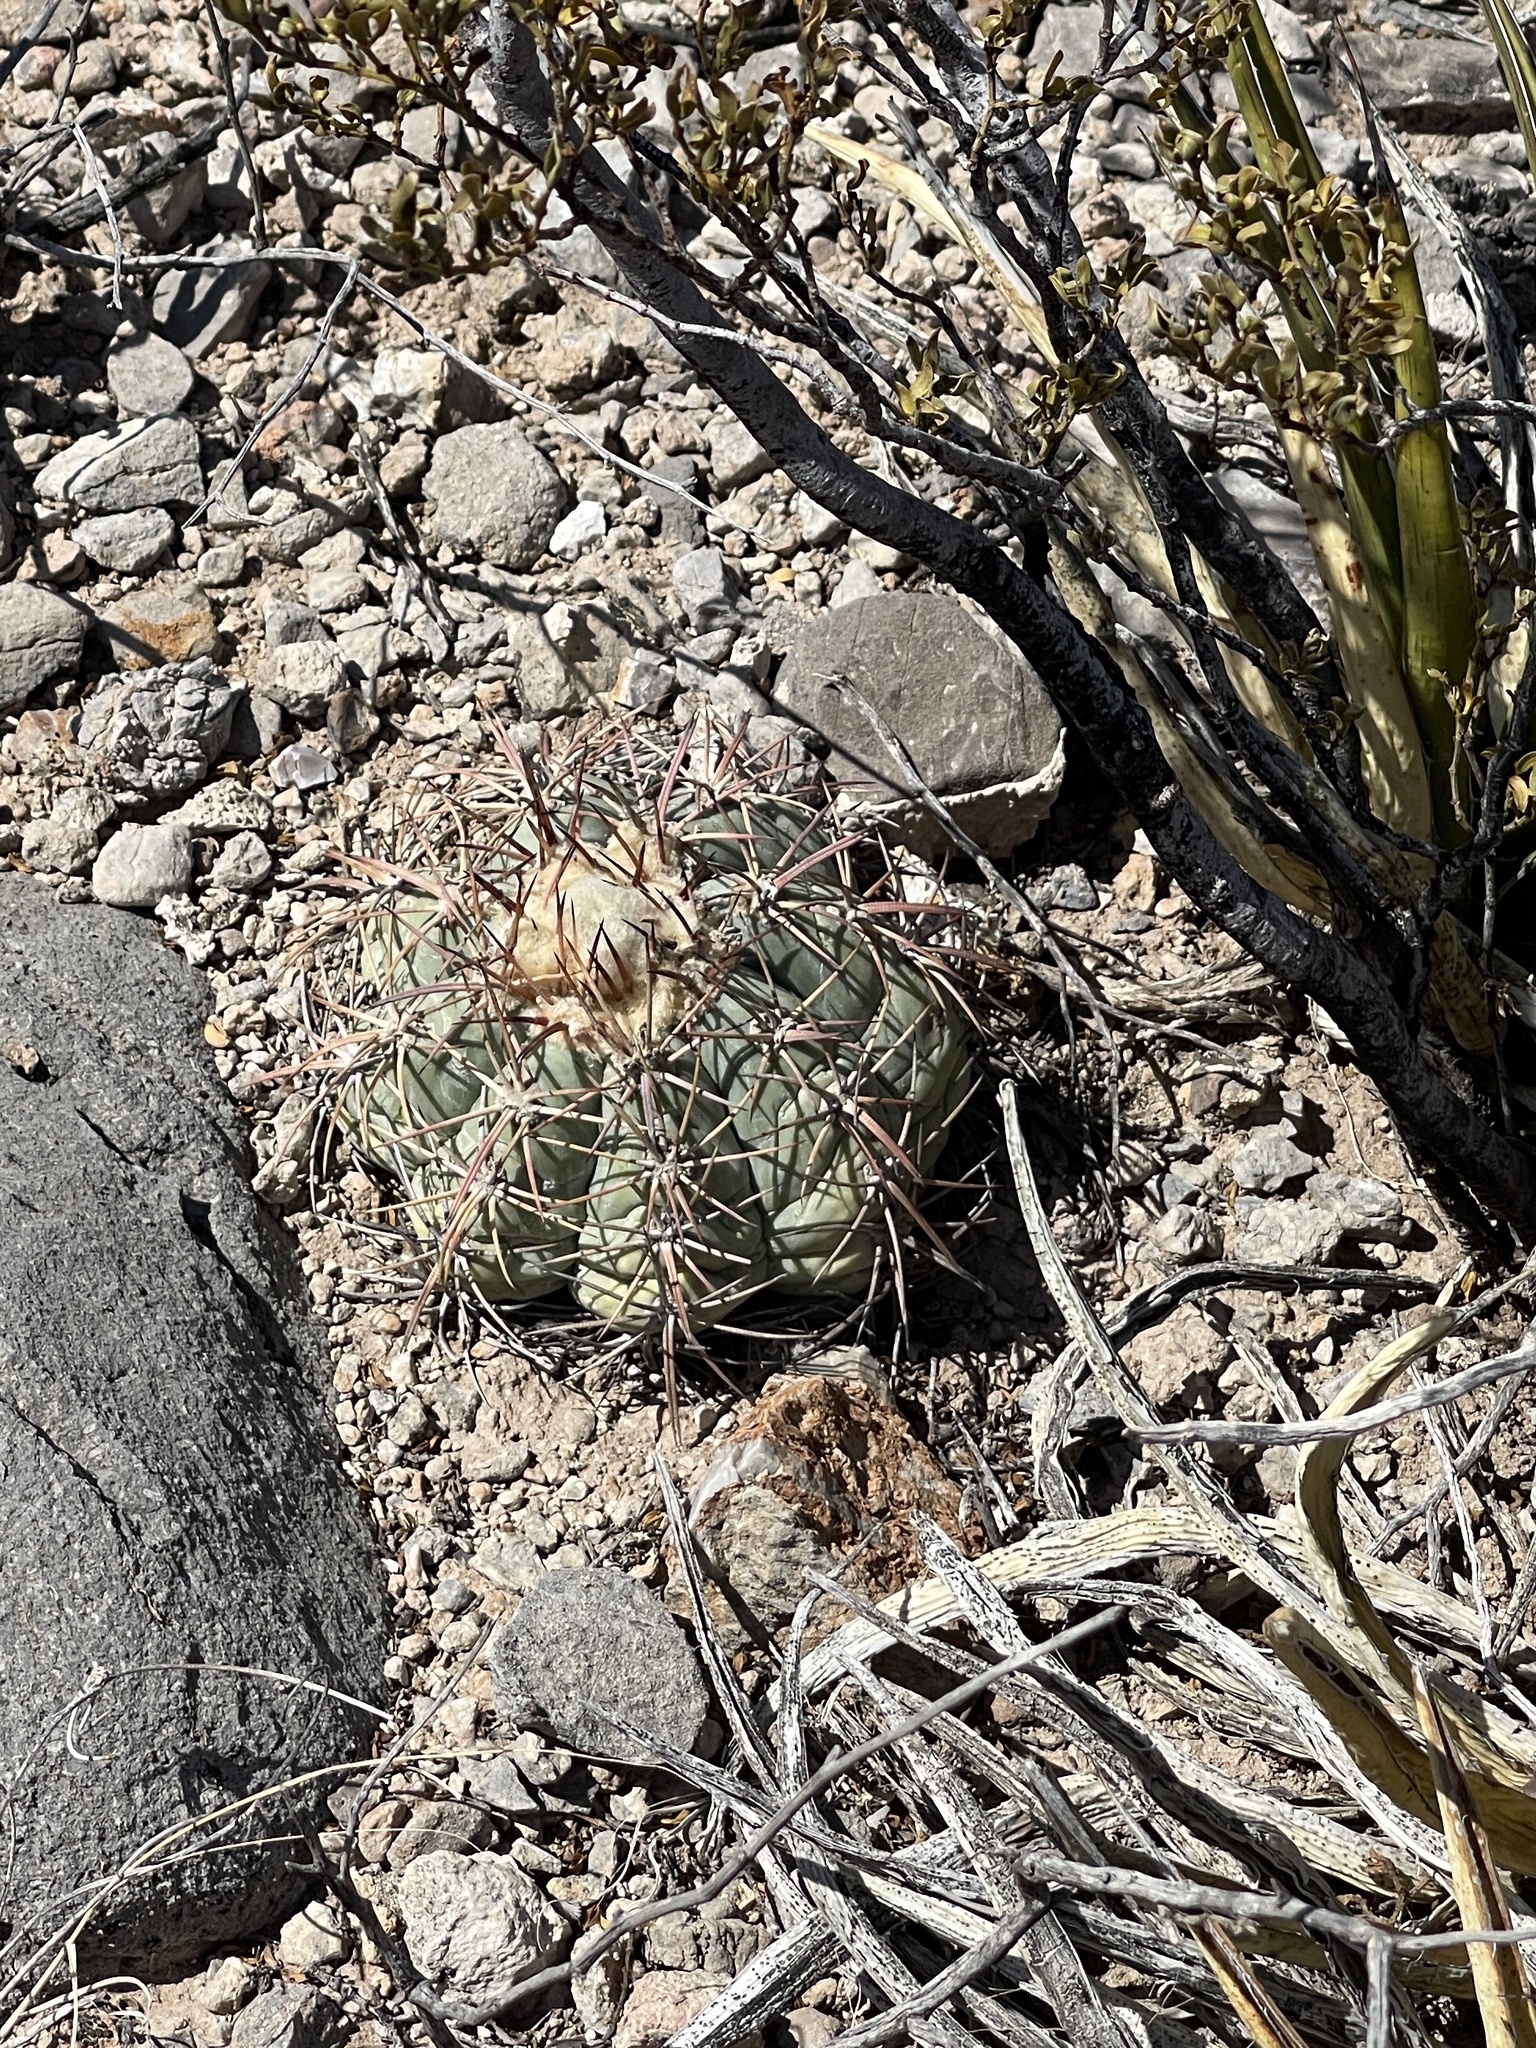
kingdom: Plantae
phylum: Tracheophyta
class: Magnoliopsida
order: Caryophyllales
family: Cactaceae
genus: Echinocactus
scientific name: Echinocactus horizonthalonius
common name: Devilshead
